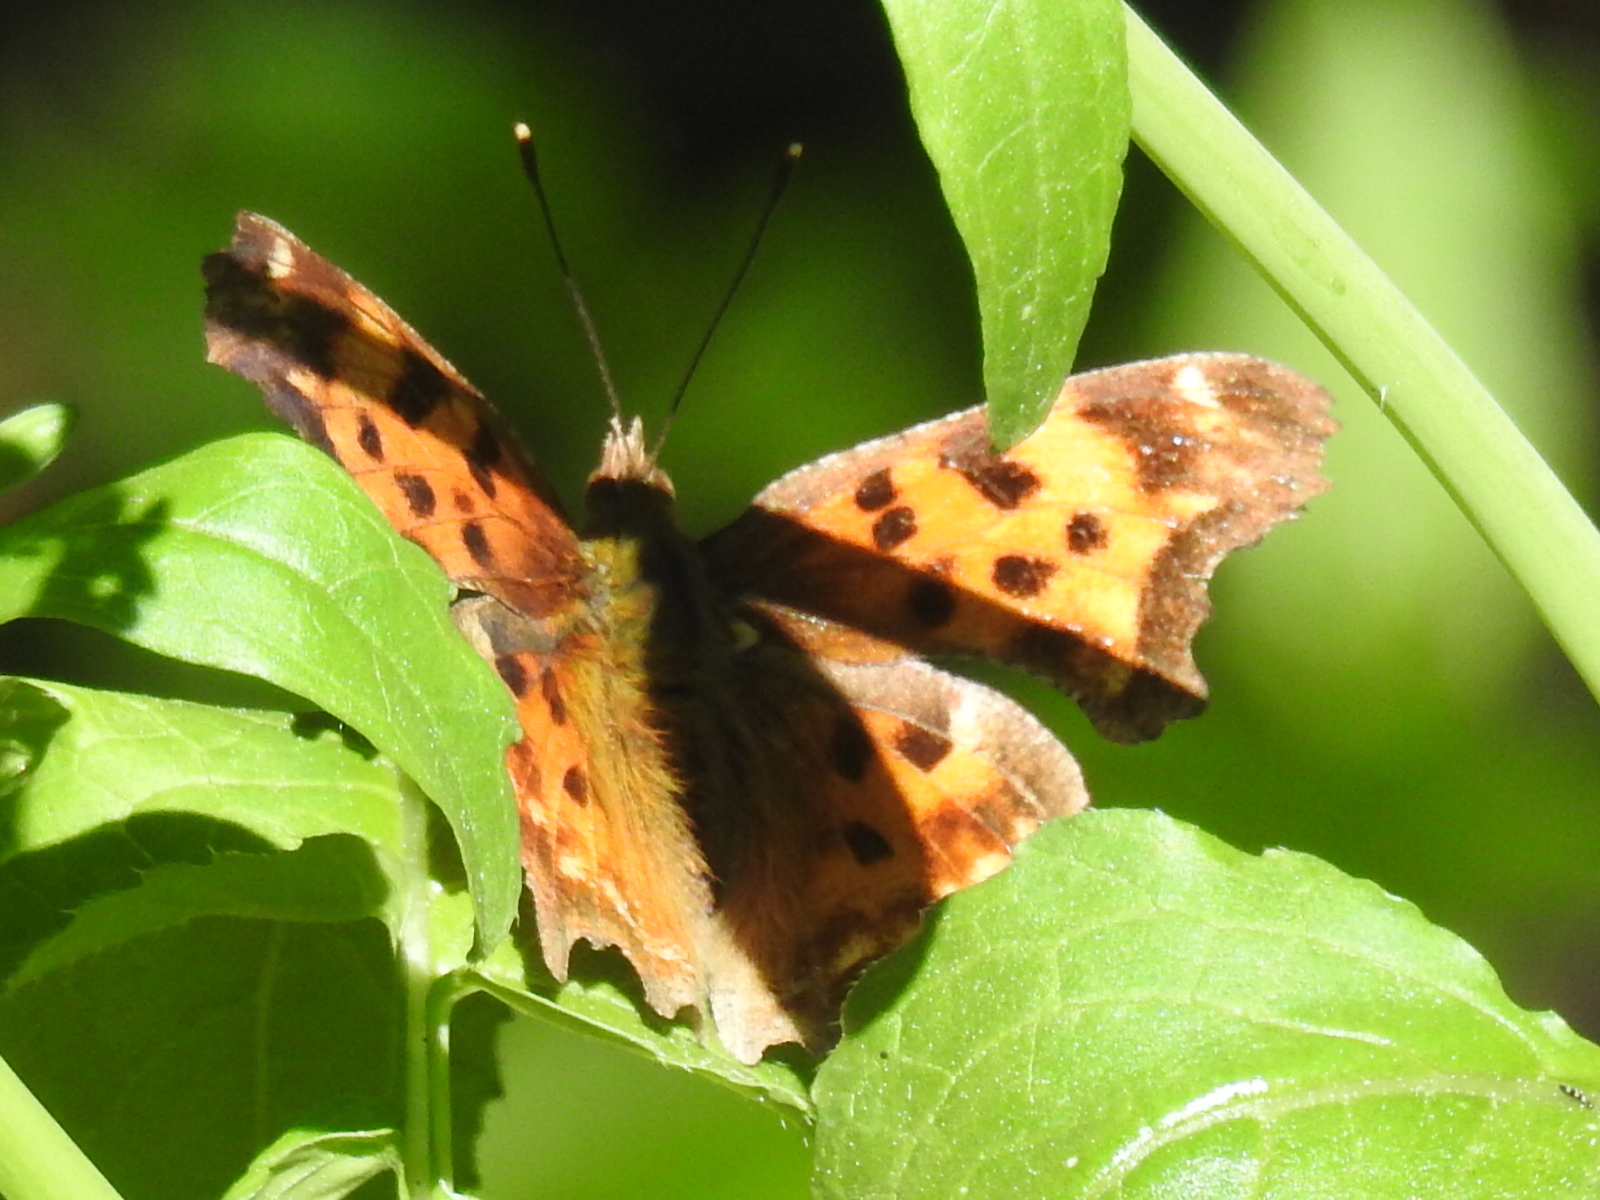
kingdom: Animalia
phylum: Arthropoda
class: Insecta
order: Lepidoptera
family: Nymphalidae
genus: Polygonia
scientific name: Polygonia satyrus
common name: Satyr angle wing
